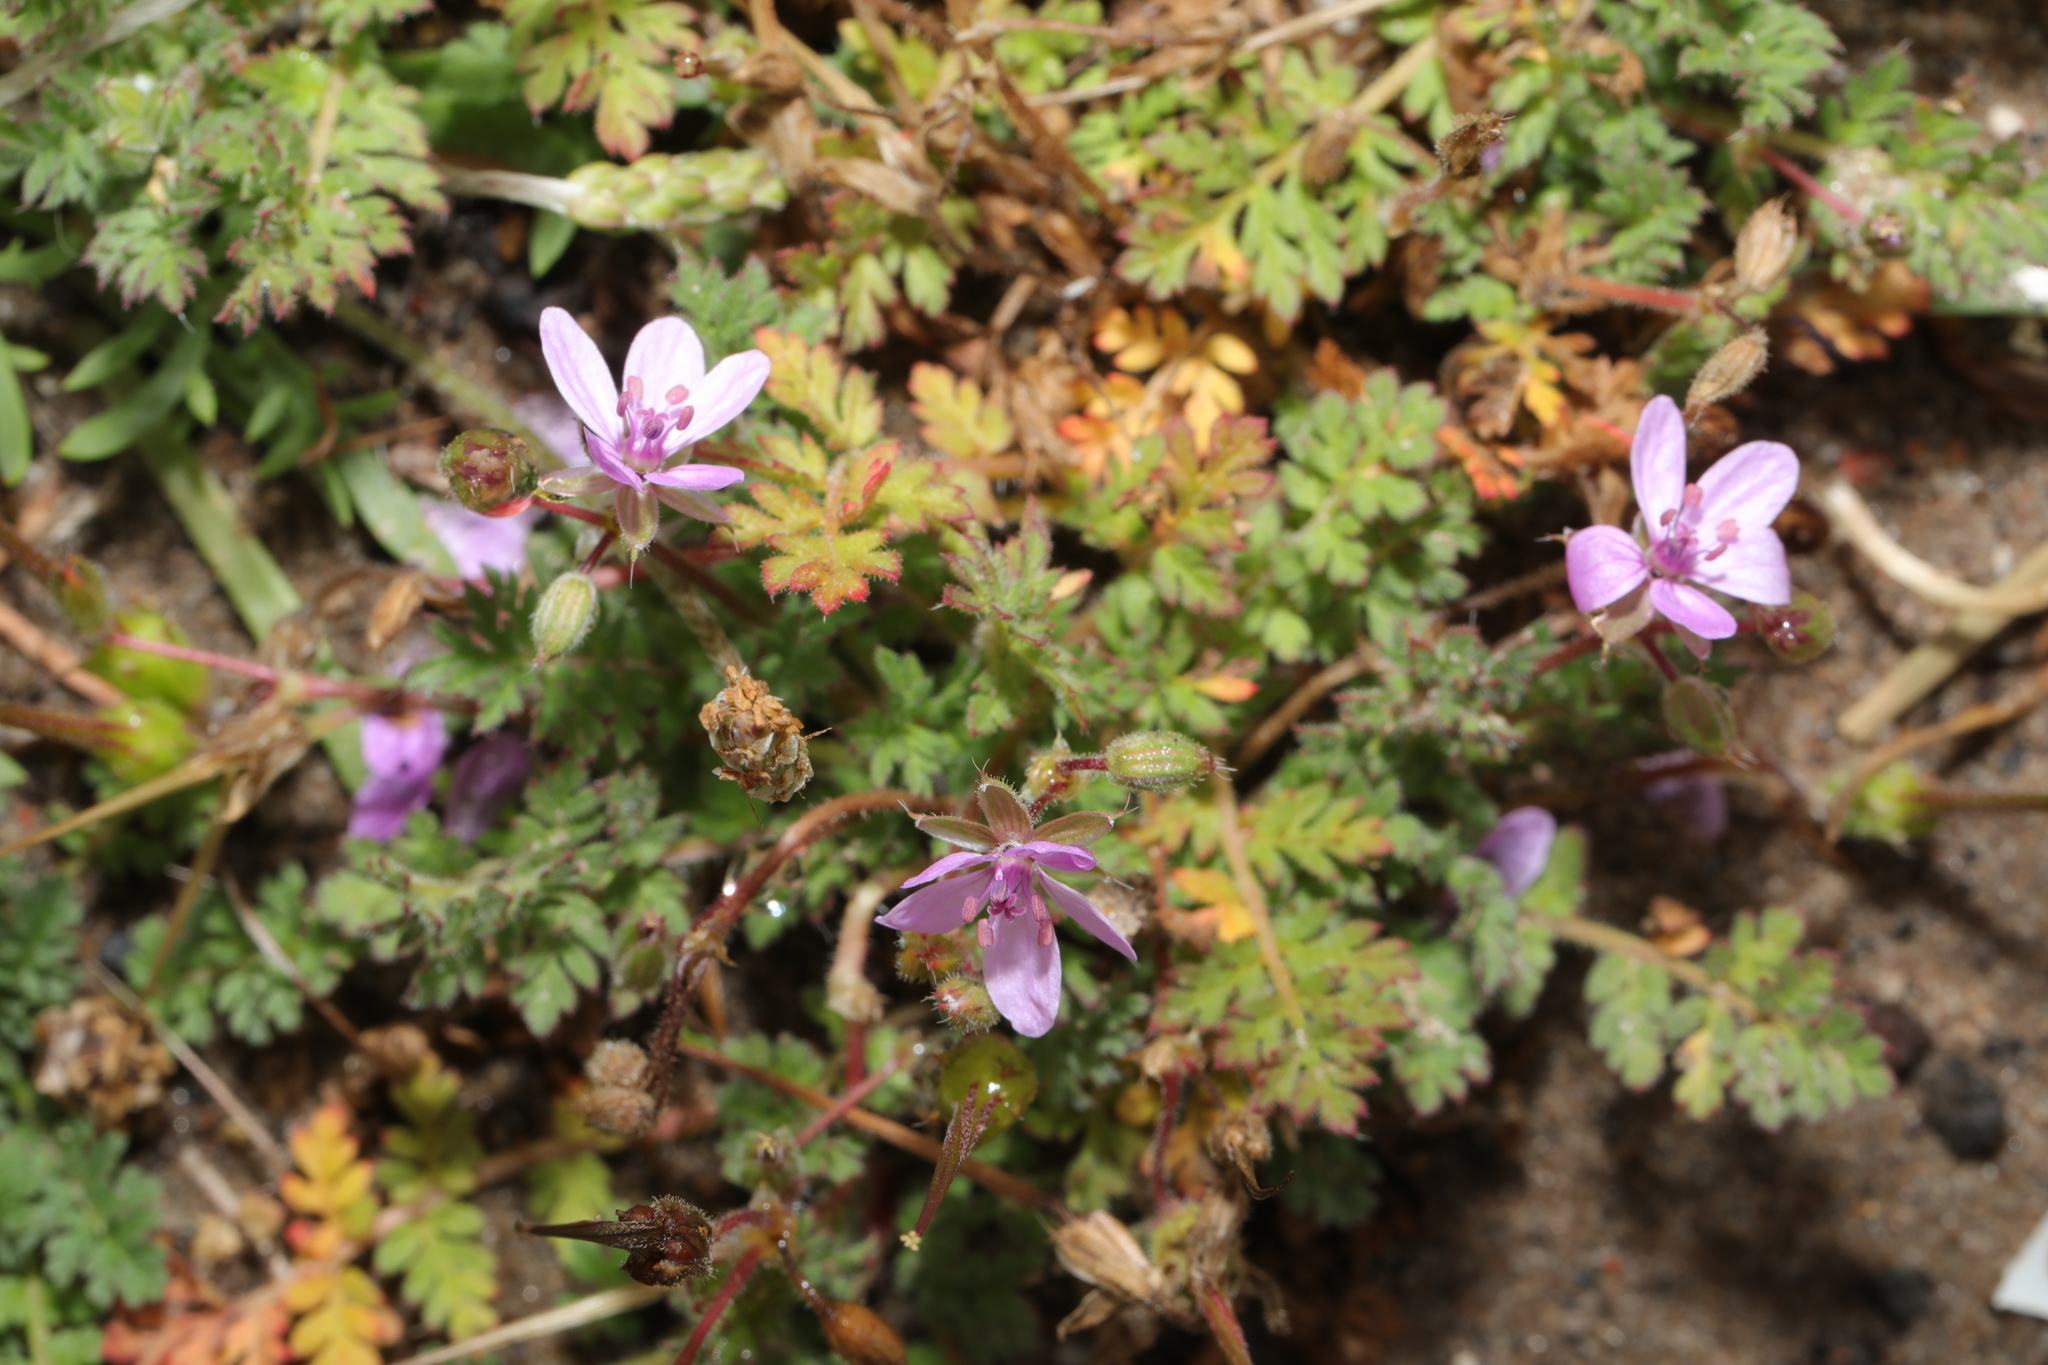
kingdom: Plantae
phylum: Tracheophyta
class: Magnoliopsida
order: Geraniales
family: Geraniaceae
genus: Erodium
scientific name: Erodium cicutarium
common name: Common stork's-bill
